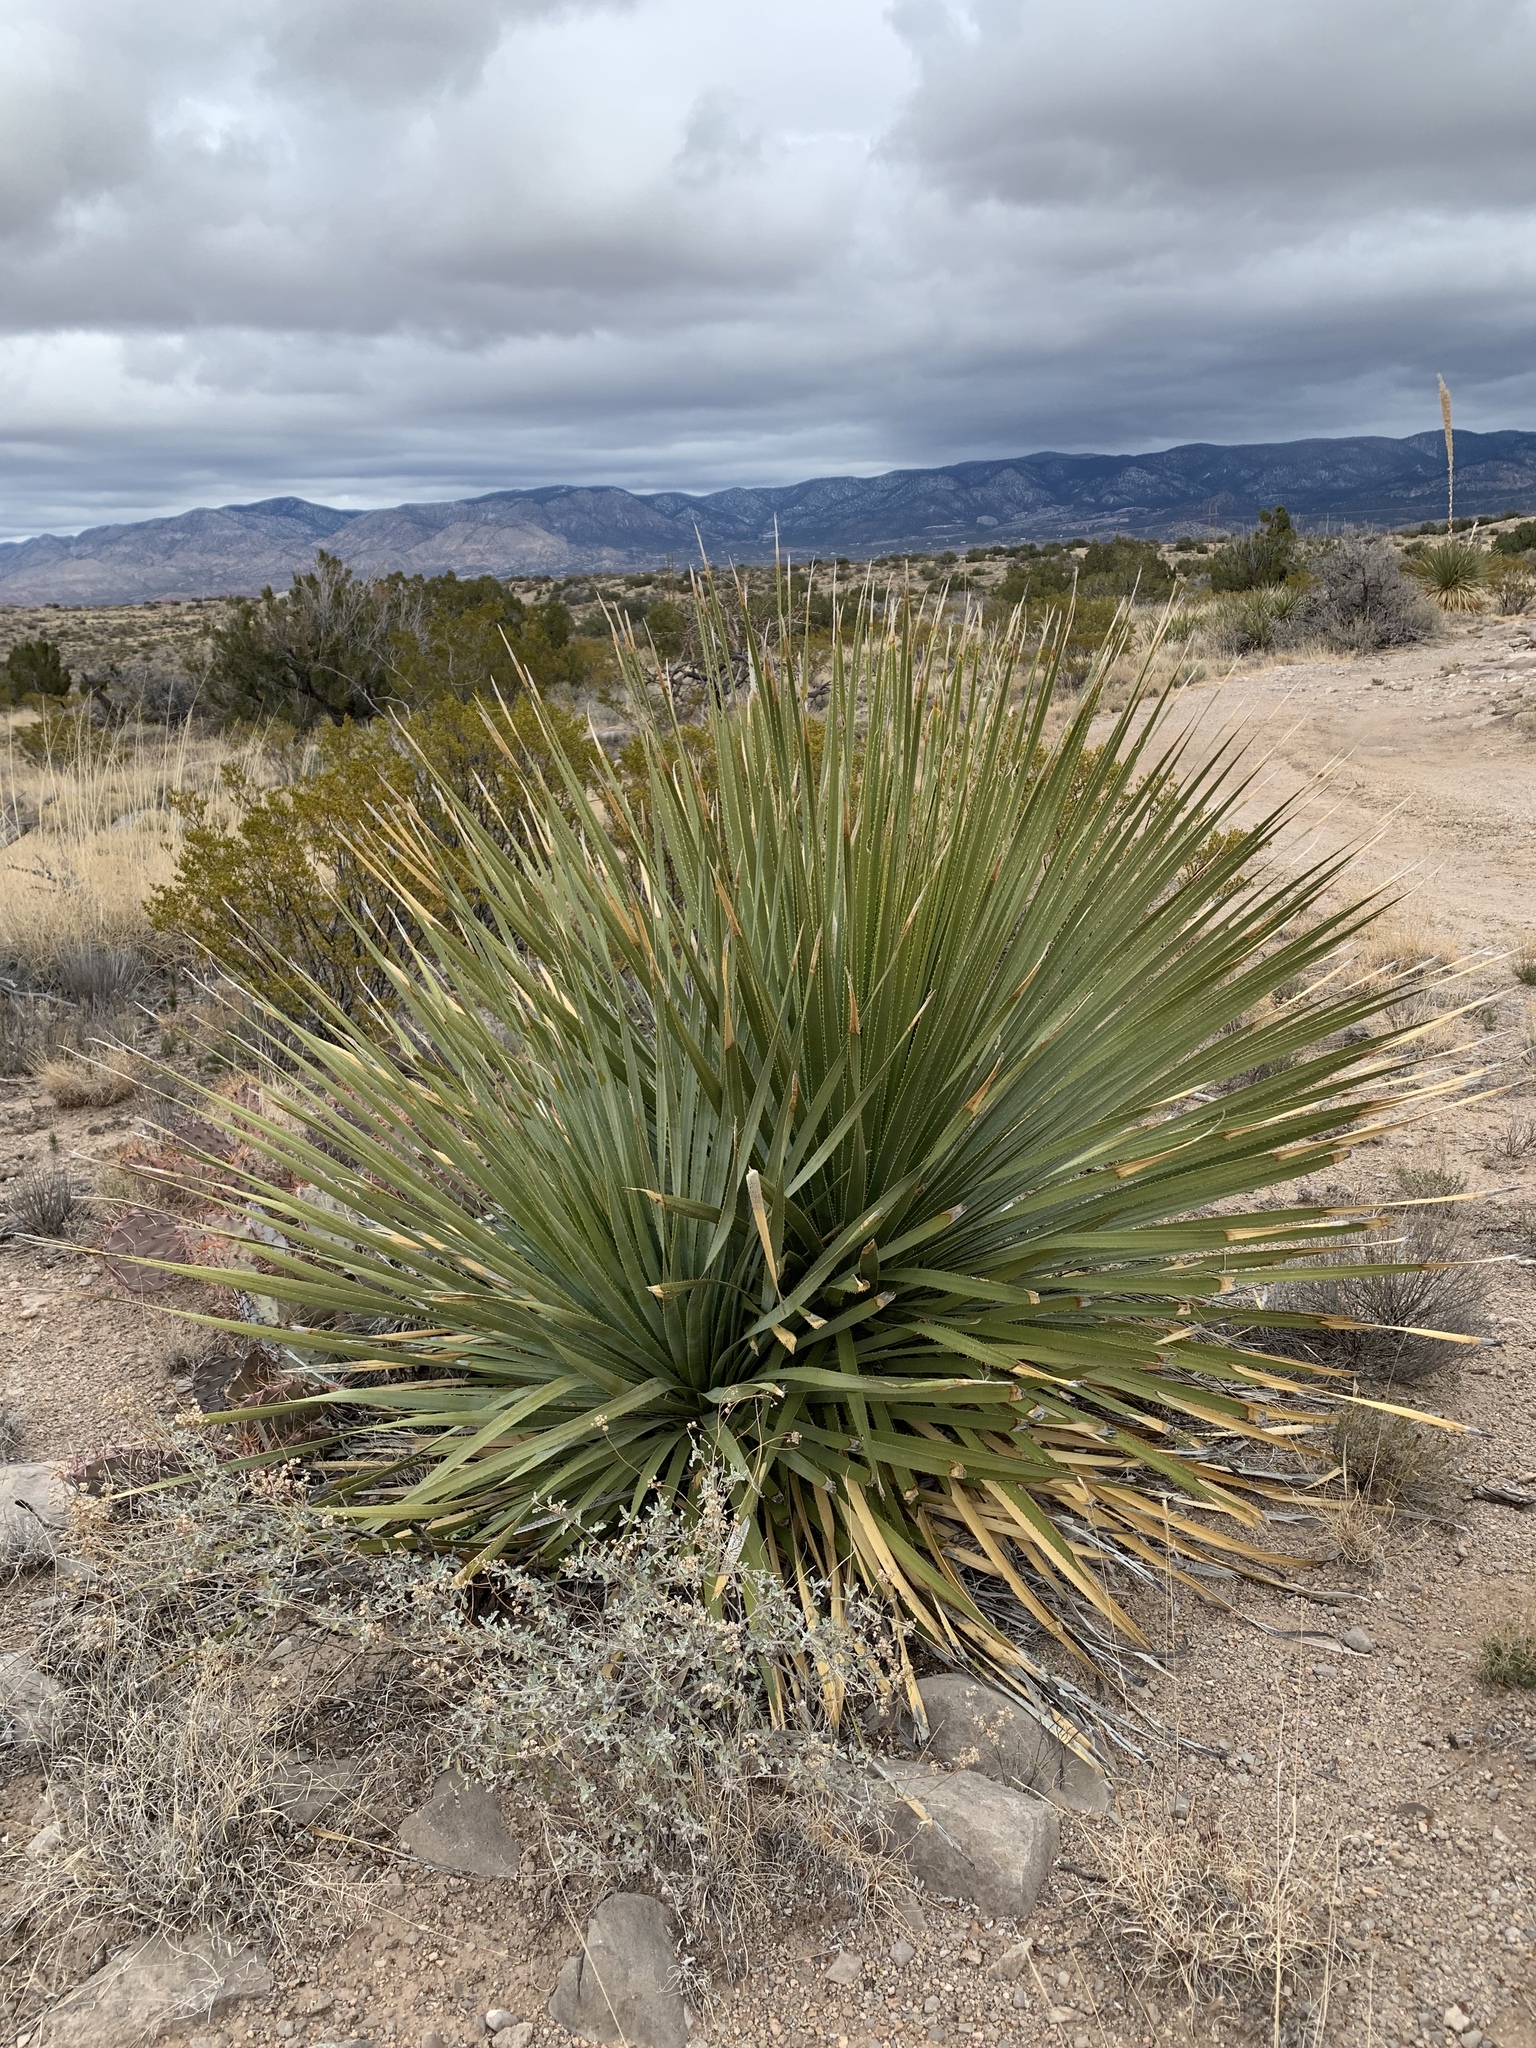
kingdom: Plantae
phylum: Tracheophyta
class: Liliopsida
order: Asparagales
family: Asparagaceae
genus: Dasylirion
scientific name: Dasylirion wheeleri
